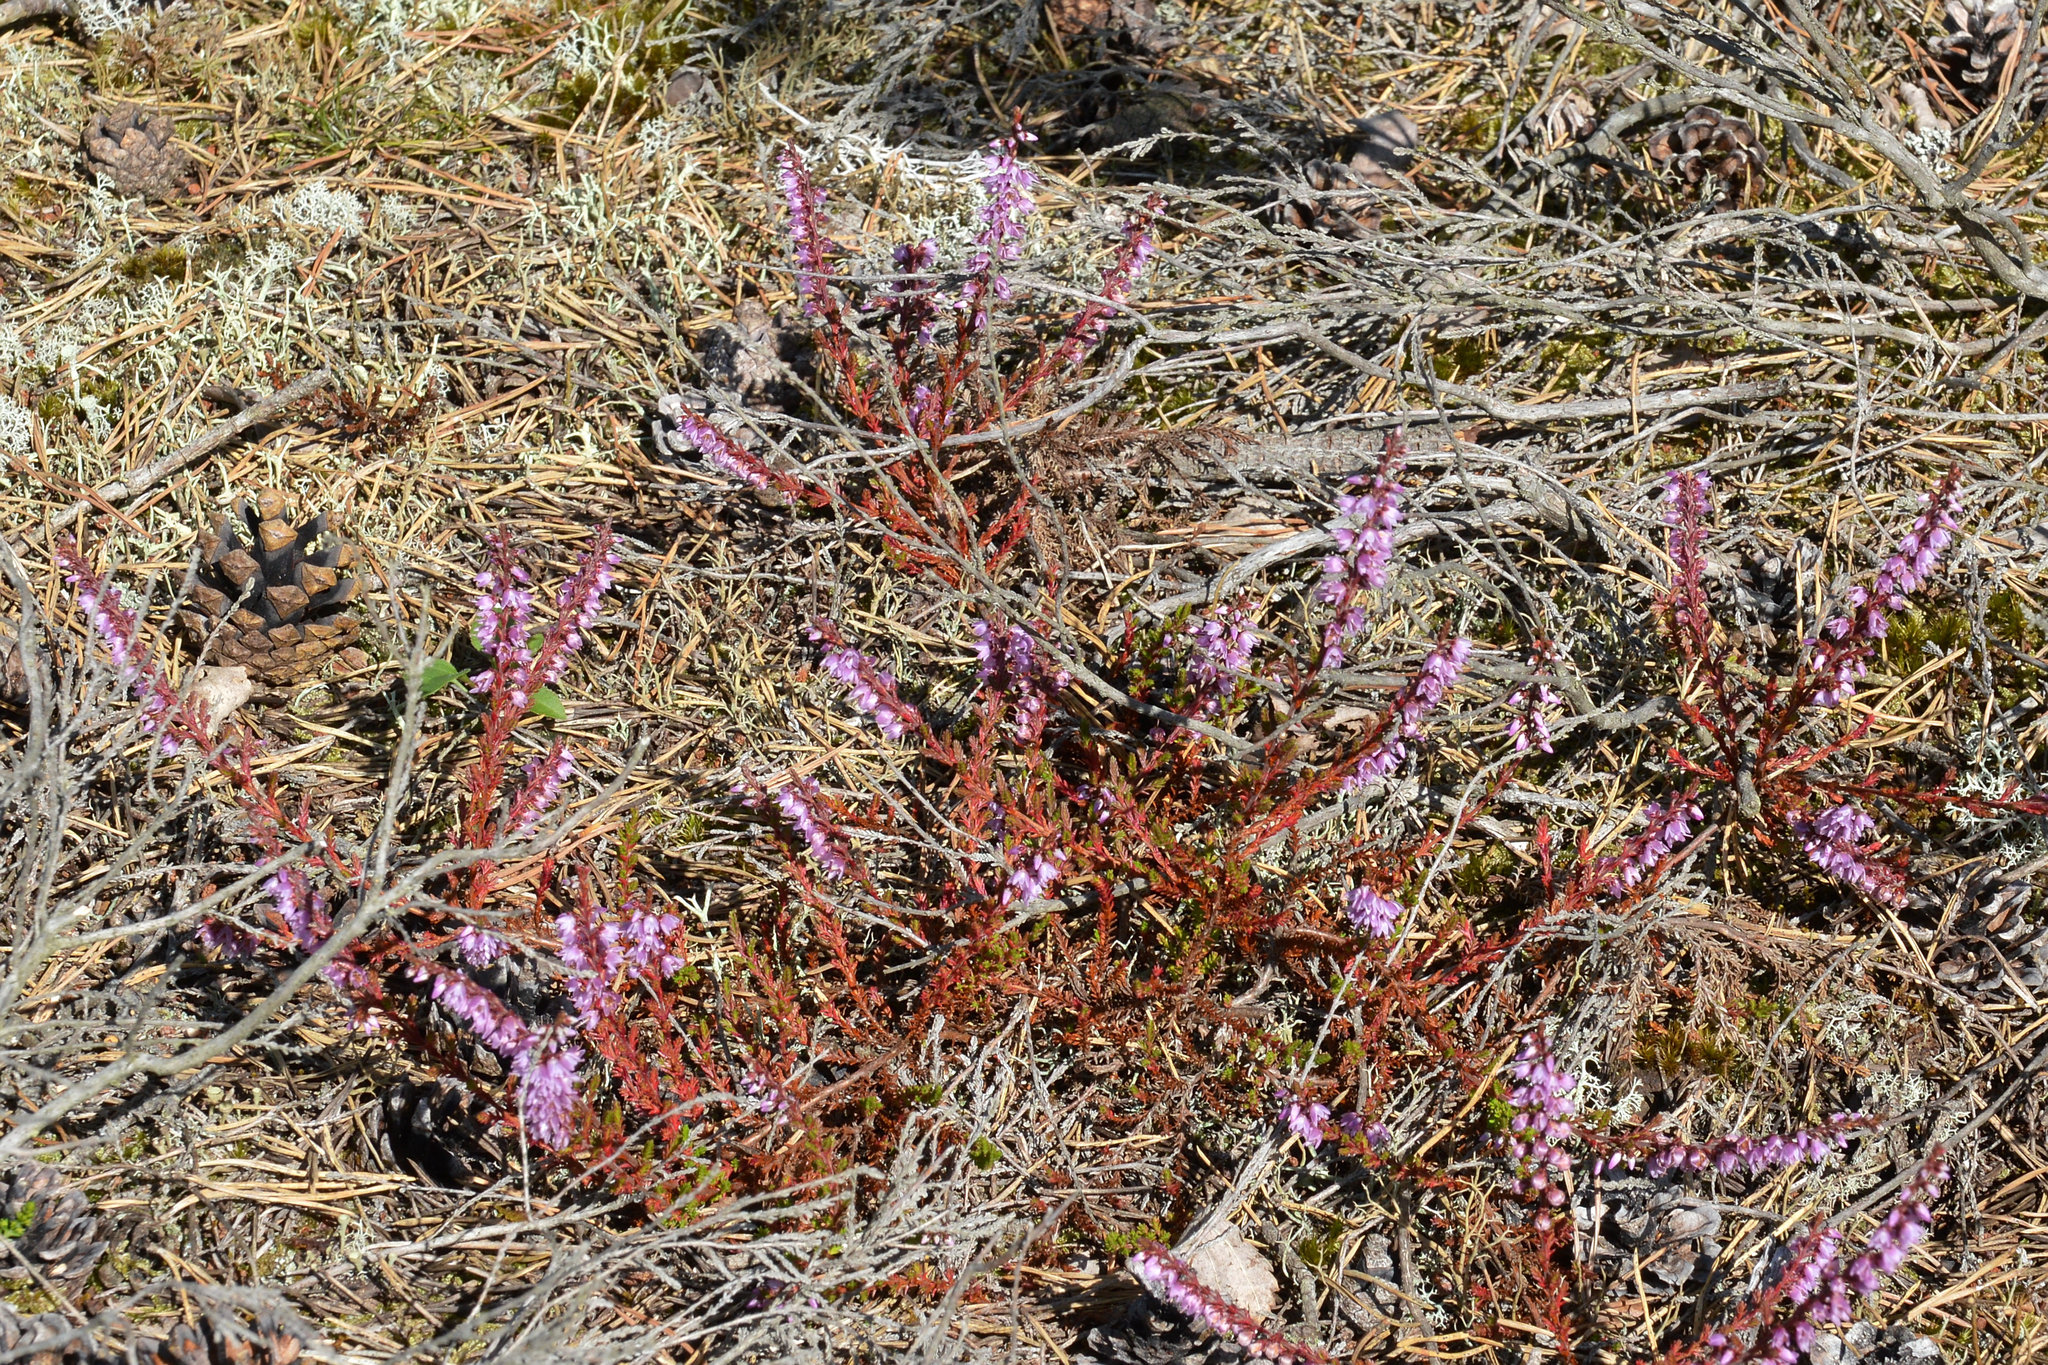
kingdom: Plantae
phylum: Tracheophyta
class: Magnoliopsida
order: Ericales
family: Ericaceae
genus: Calluna
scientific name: Calluna vulgaris
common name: Heather
